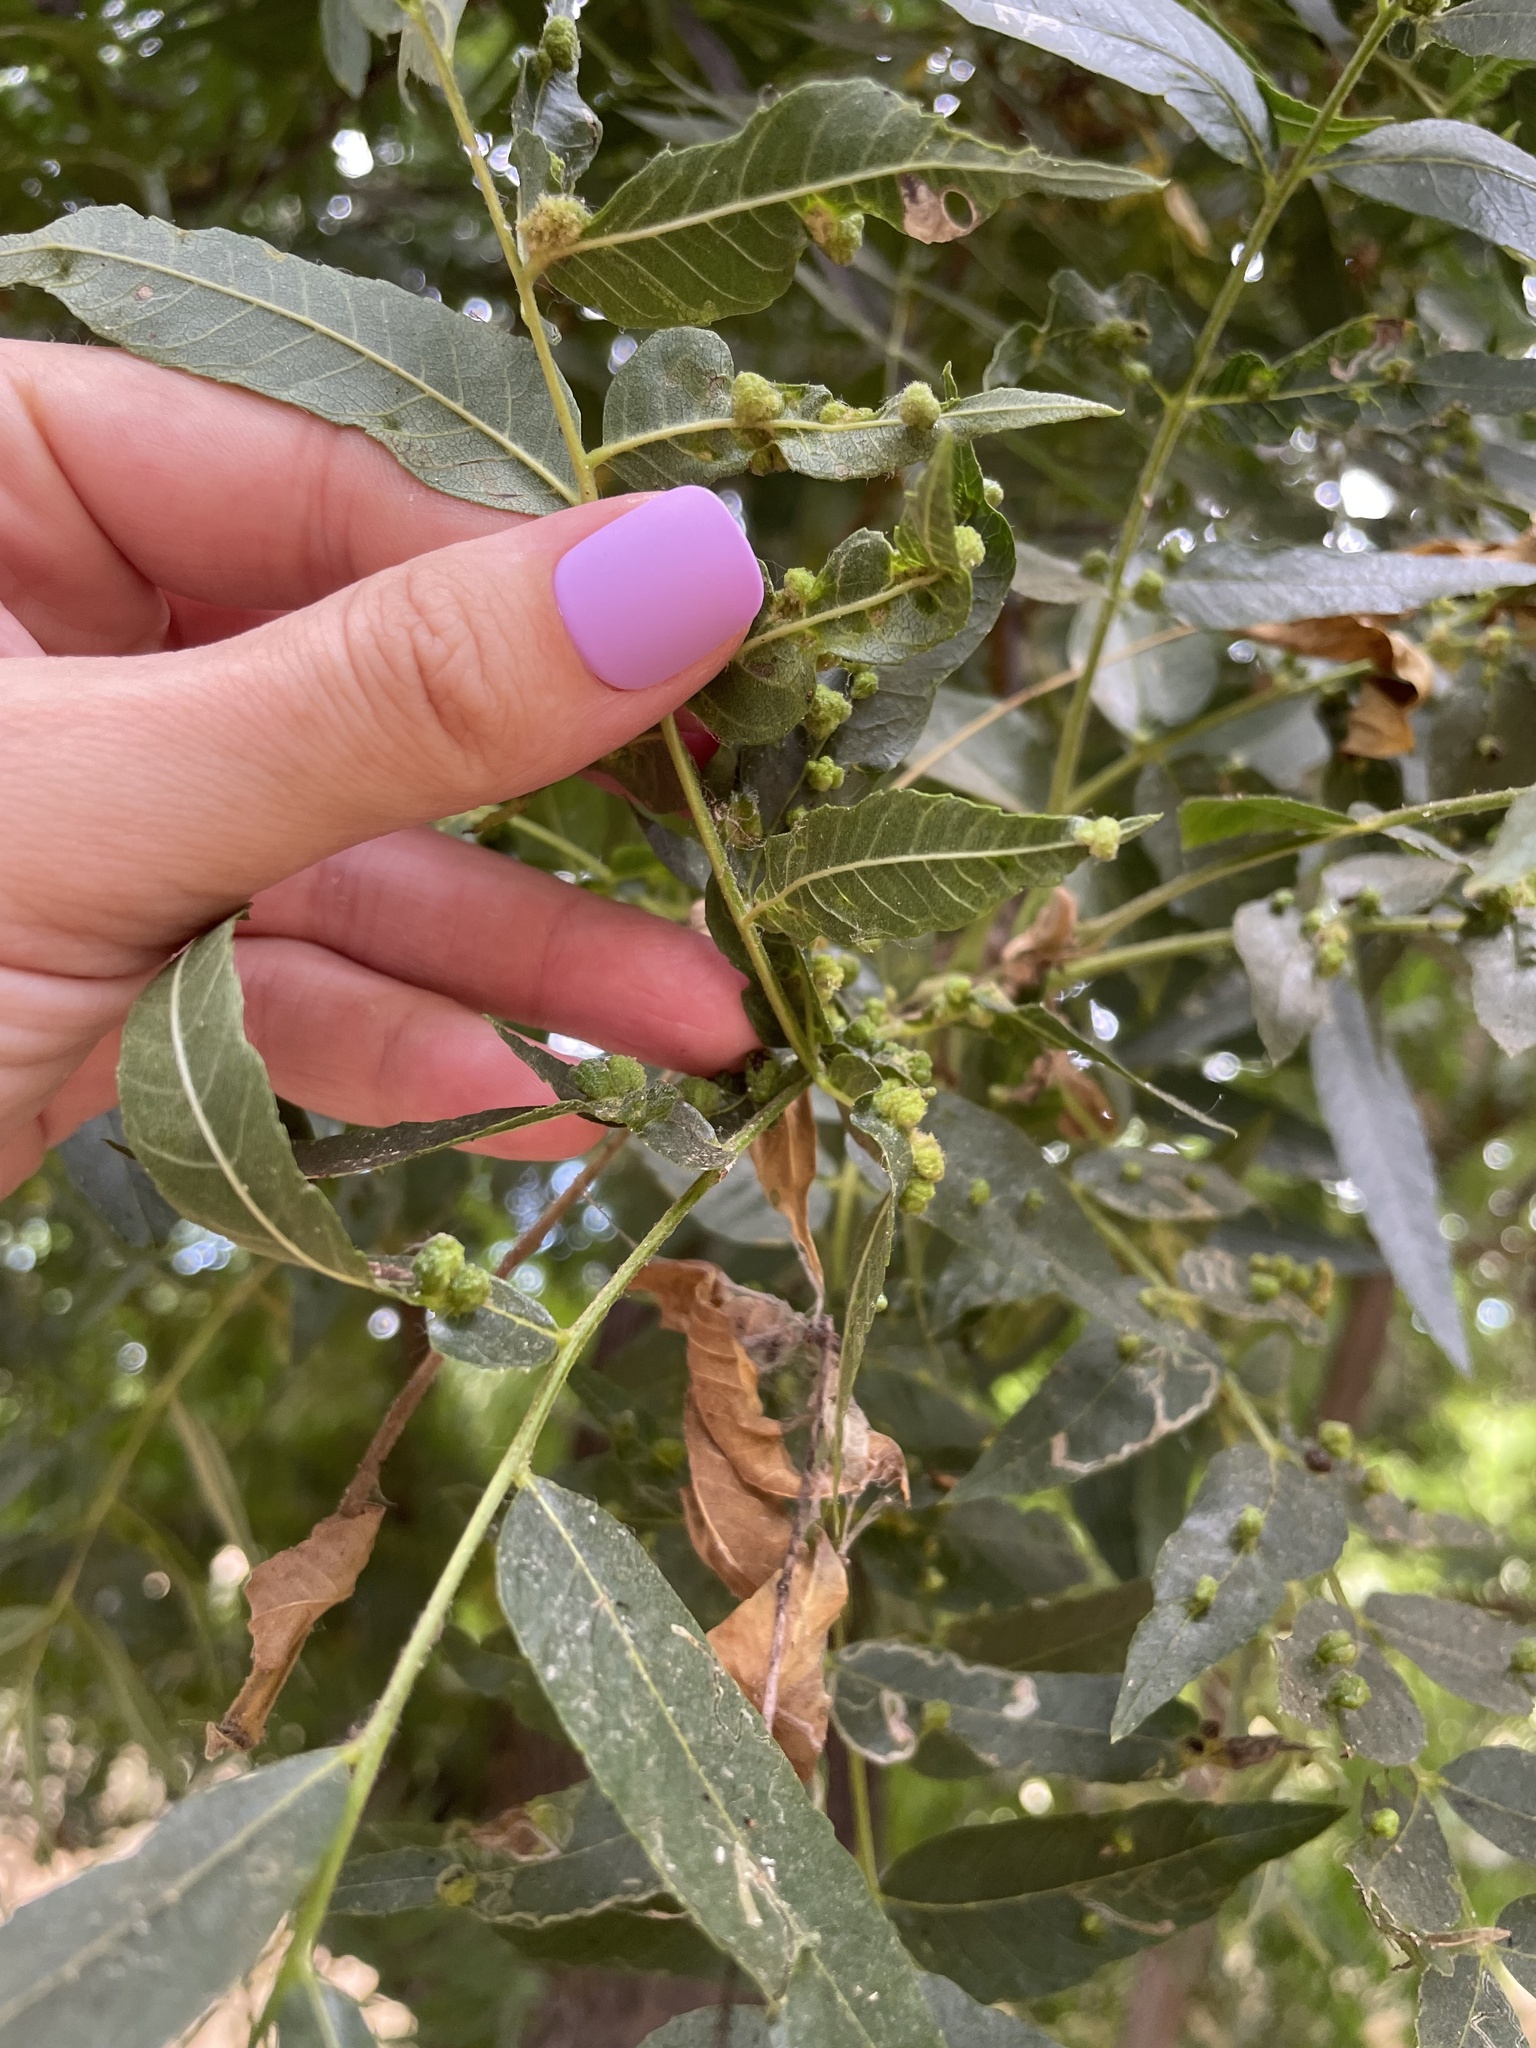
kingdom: Animalia
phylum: Arthropoda
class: Arachnida
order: Trombidiformes
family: Eriophyidae
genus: Aceria
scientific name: Aceria brachytarsus
